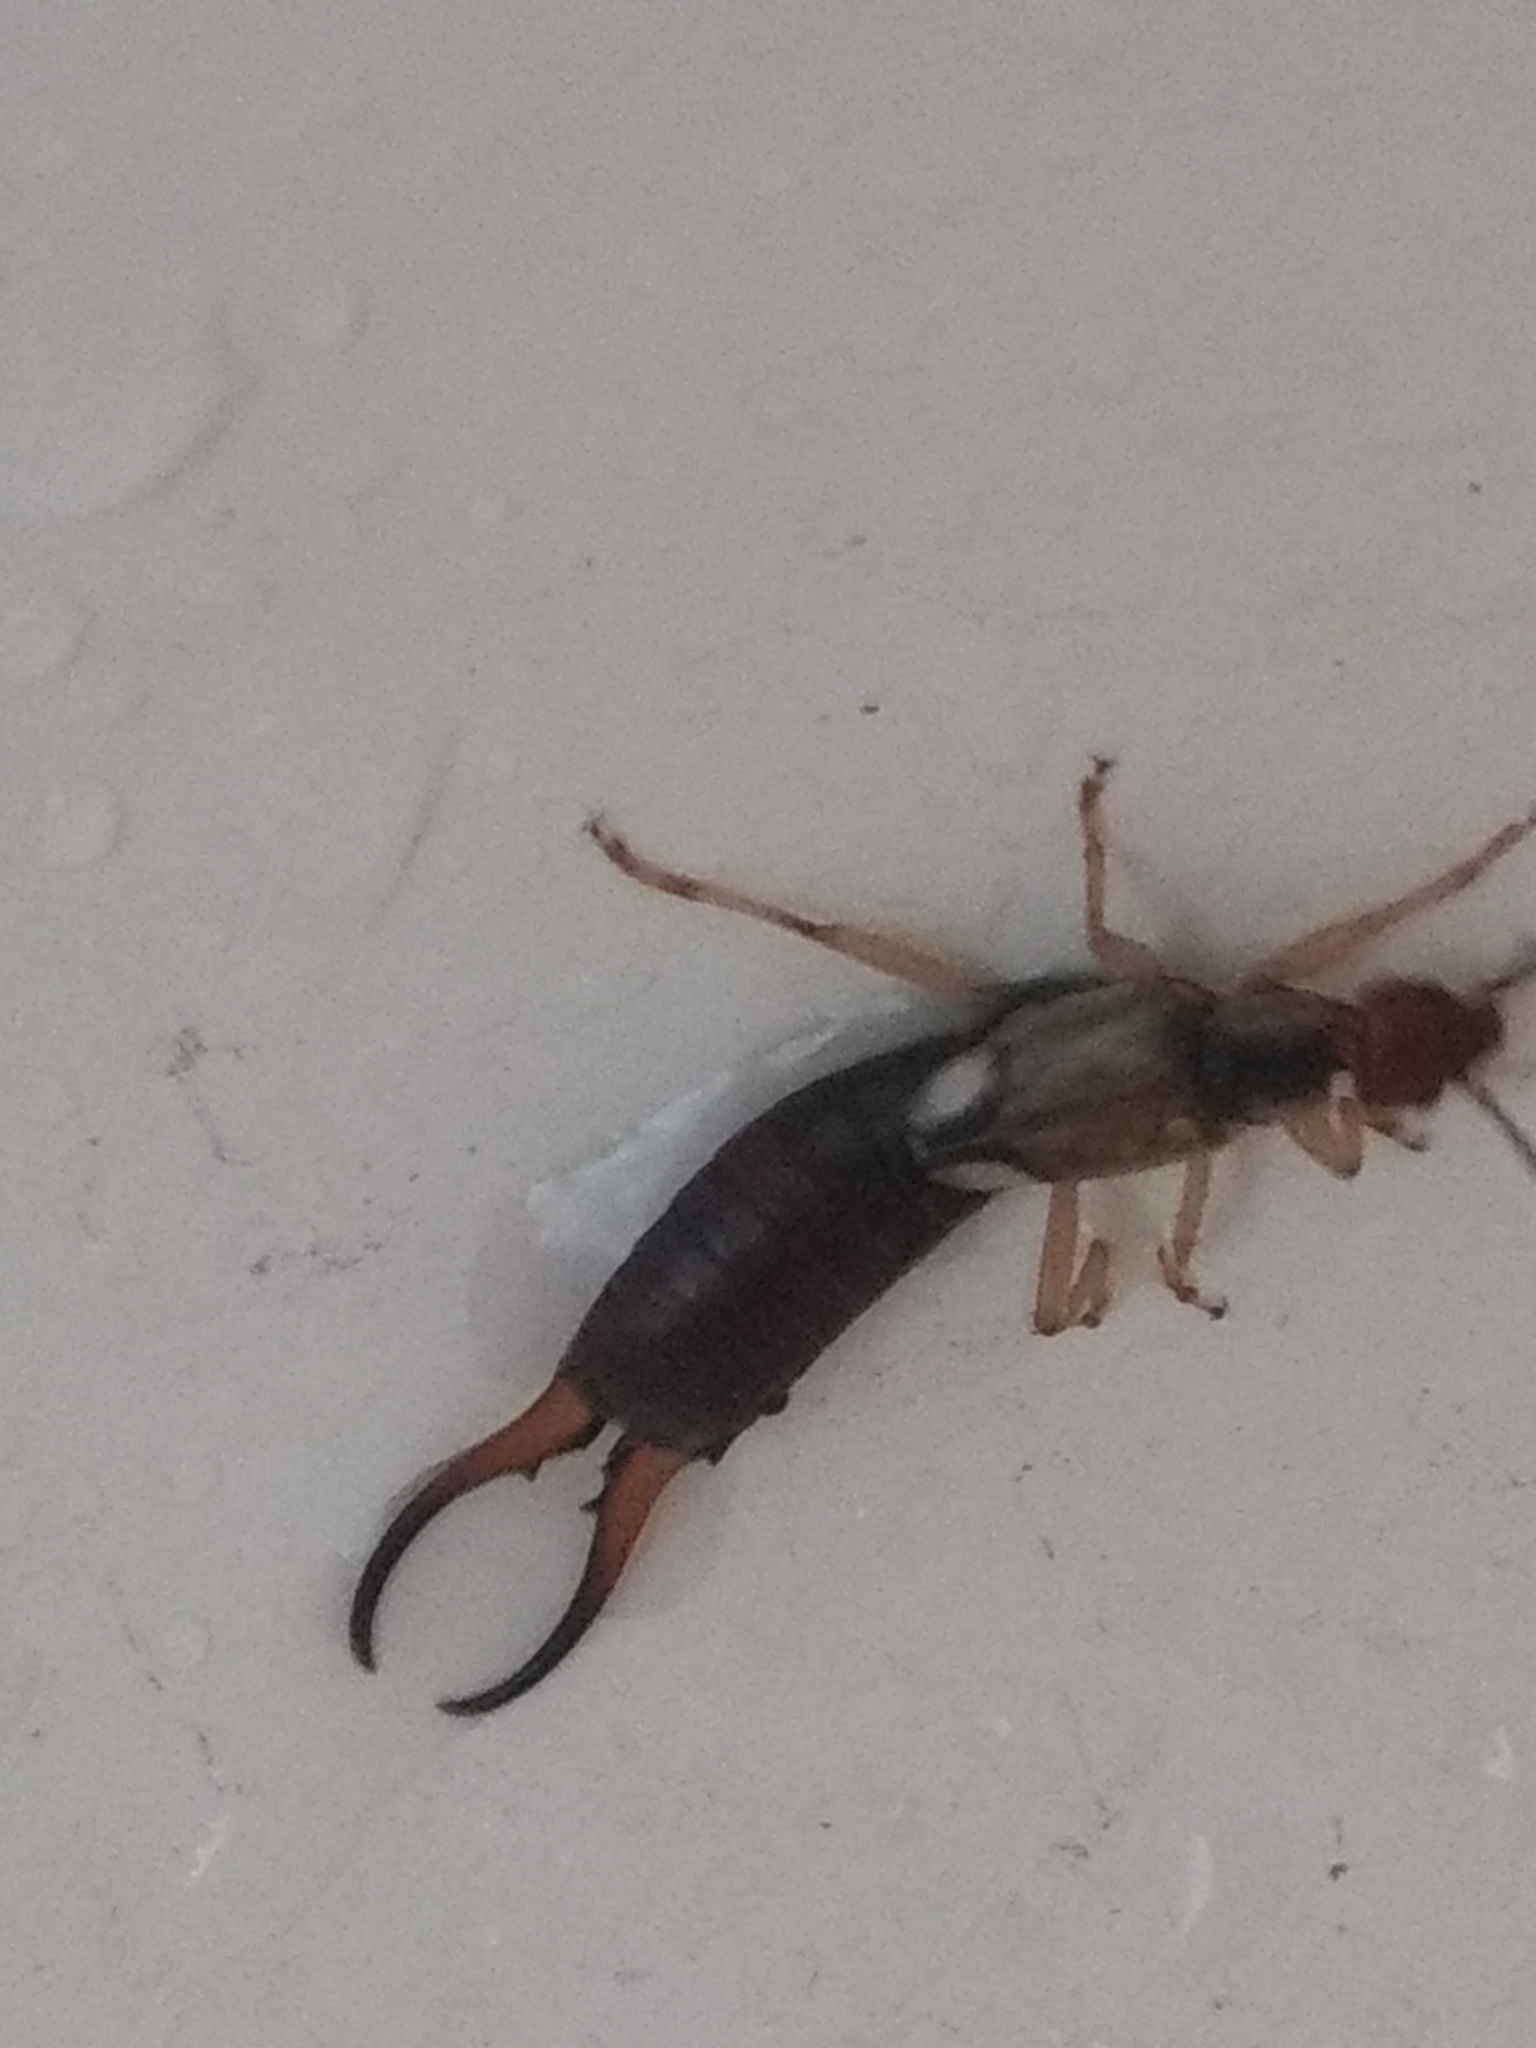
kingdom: Animalia
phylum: Arthropoda
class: Insecta
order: Dermaptera
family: Forficulidae
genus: Forficula
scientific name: Forficula
